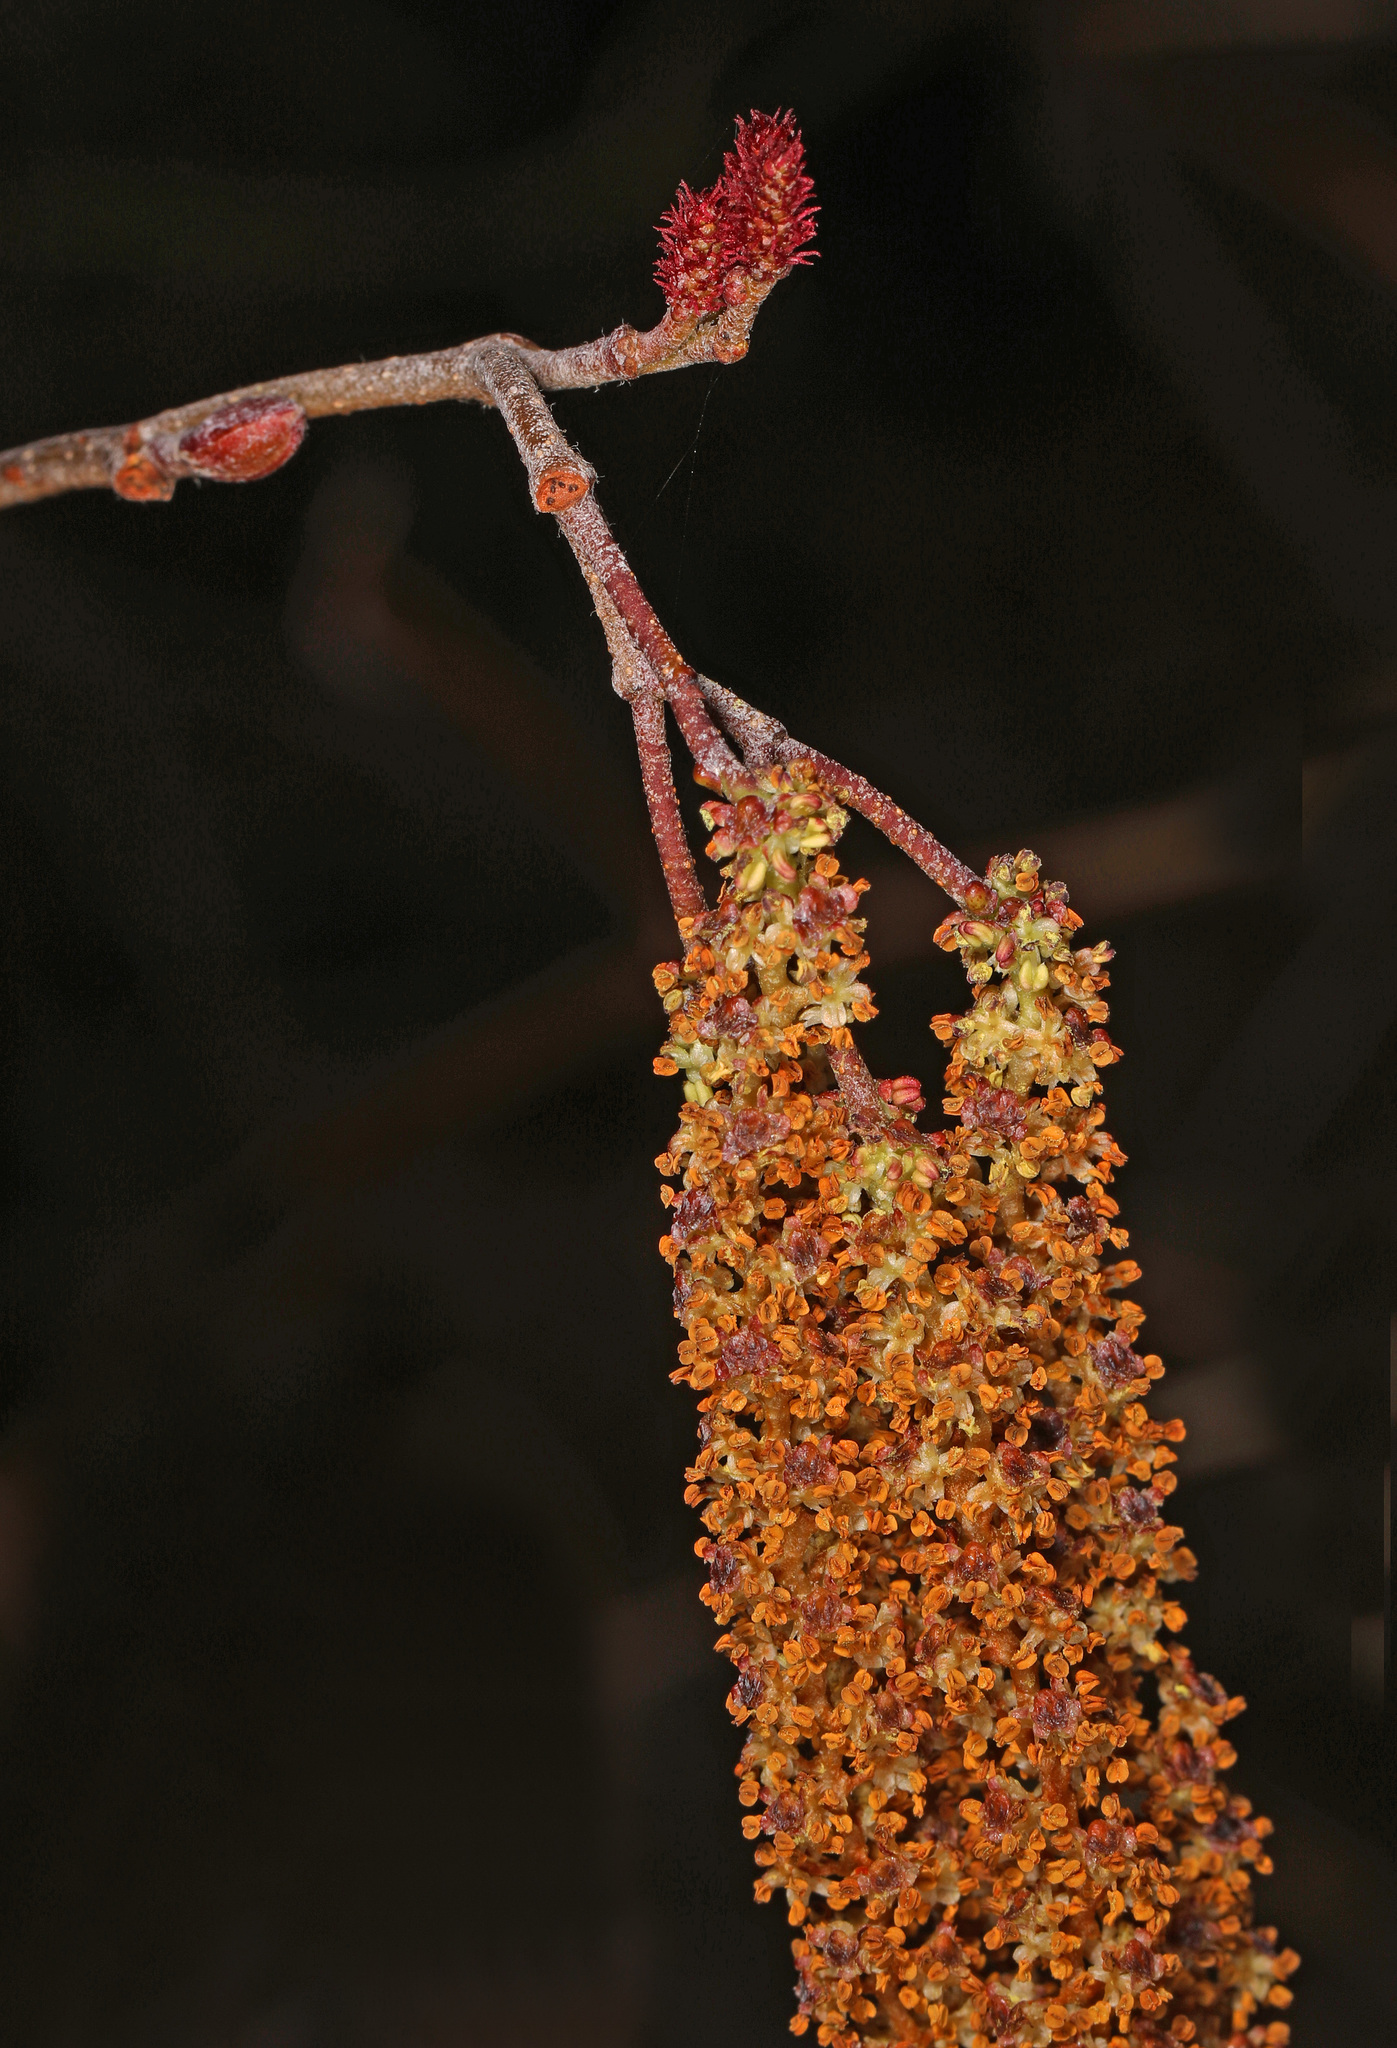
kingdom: Plantae
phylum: Tracheophyta
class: Magnoliopsida
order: Fagales
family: Betulaceae
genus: Alnus
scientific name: Alnus serrulata
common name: Hazel alder
